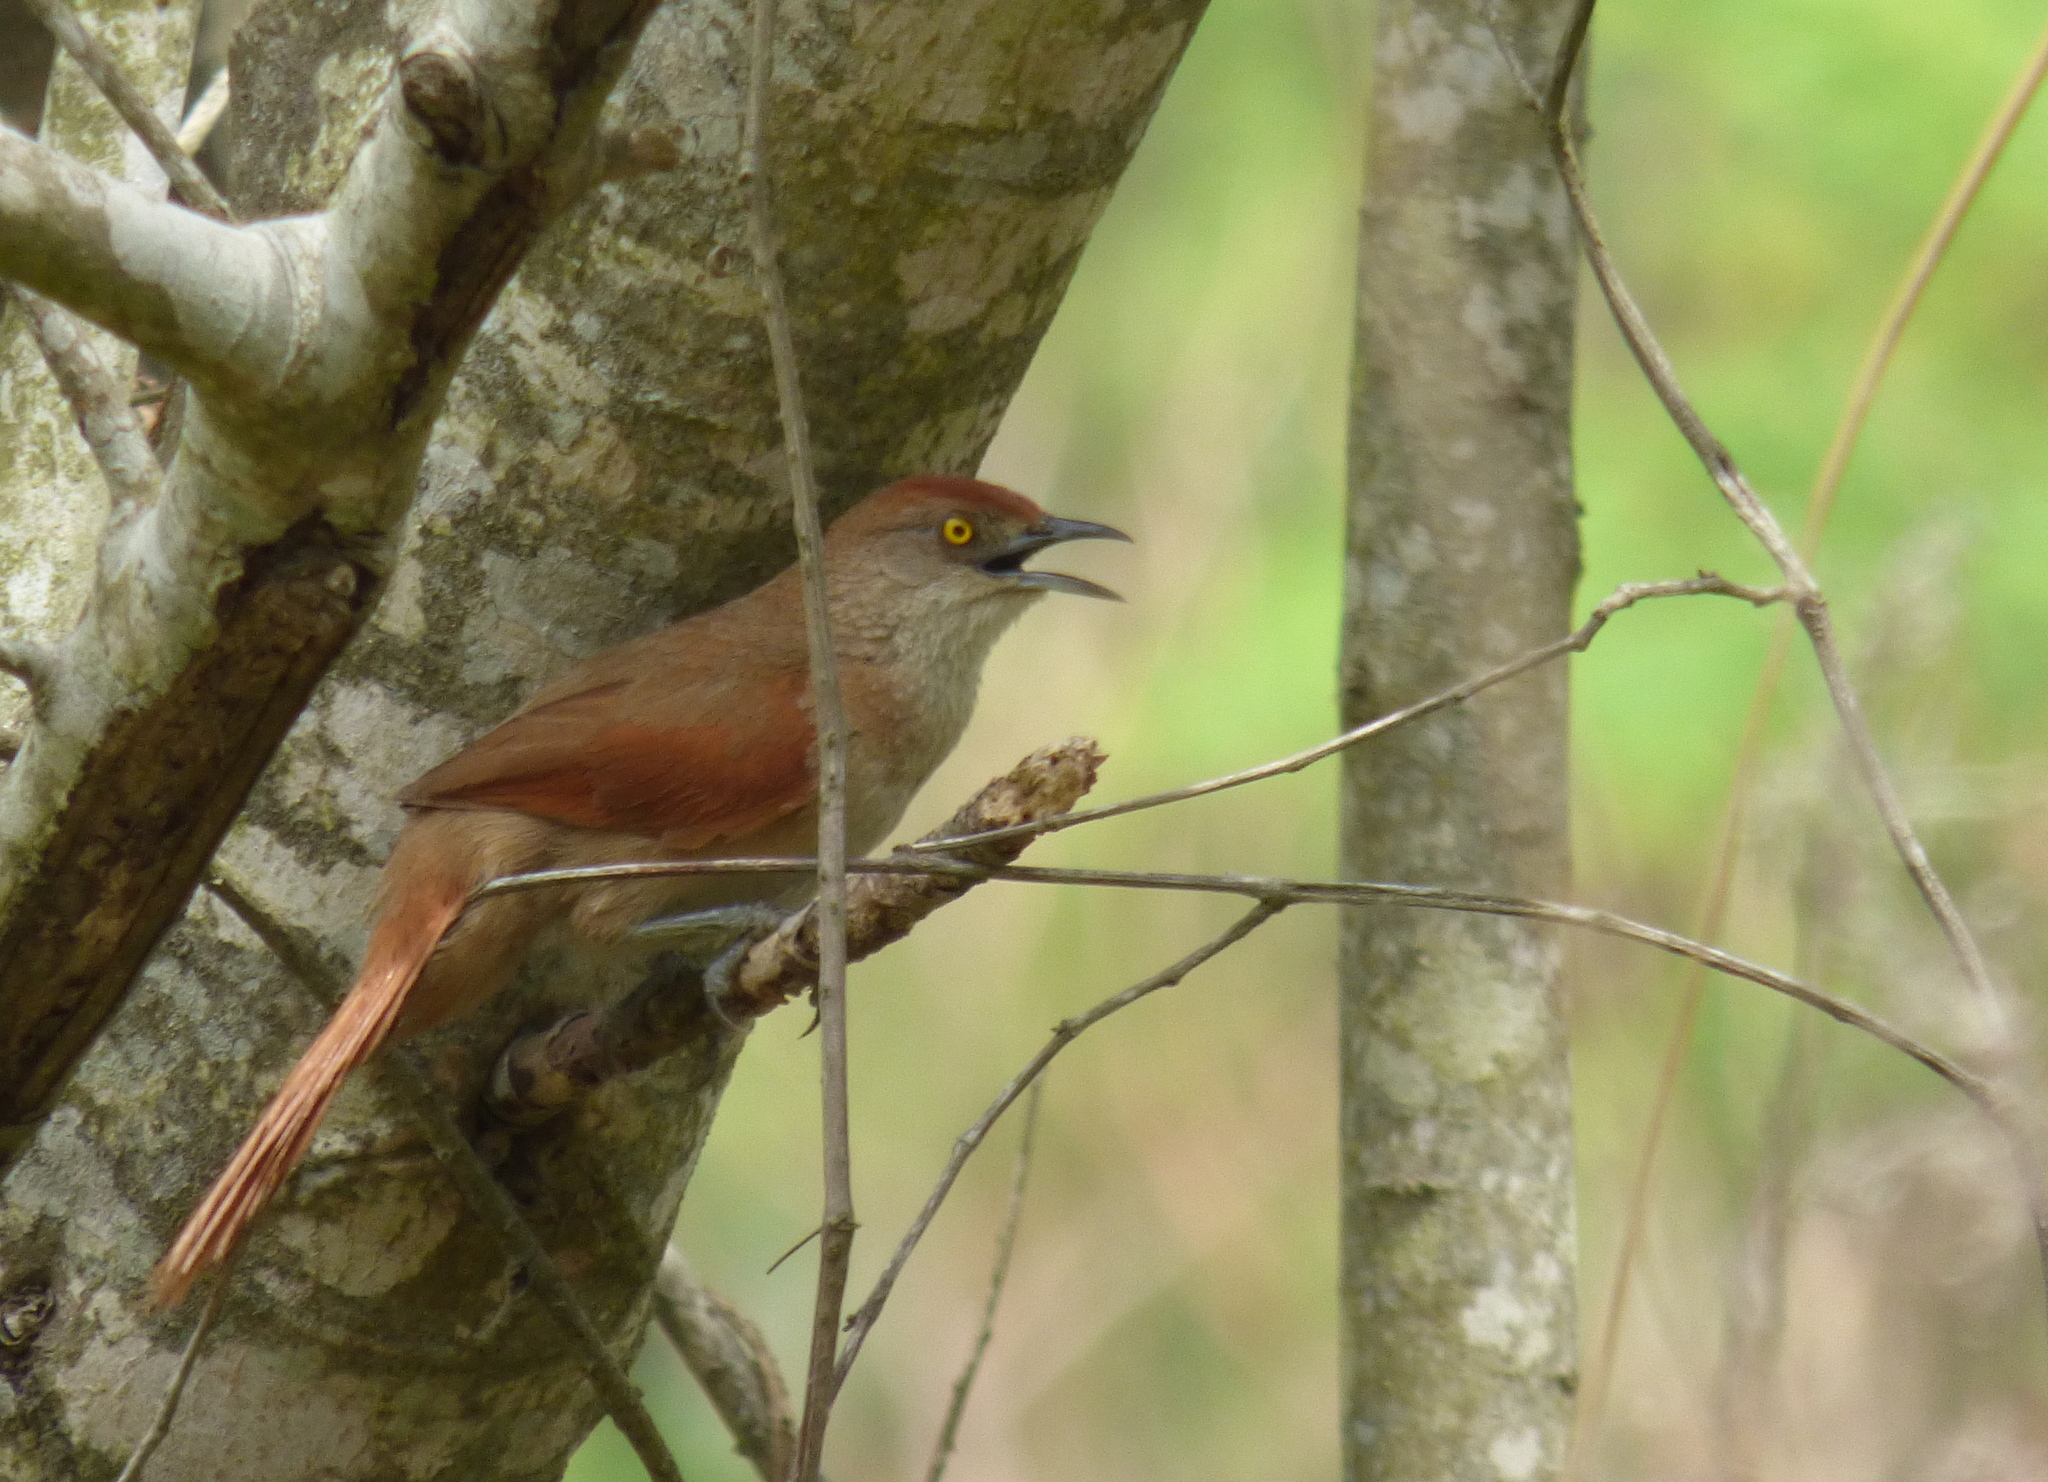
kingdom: Animalia
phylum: Chordata
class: Aves
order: Passeriformes
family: Furnariidae
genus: Phacellodomus
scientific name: Phacellodomus ruber
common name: Greater thornbird
